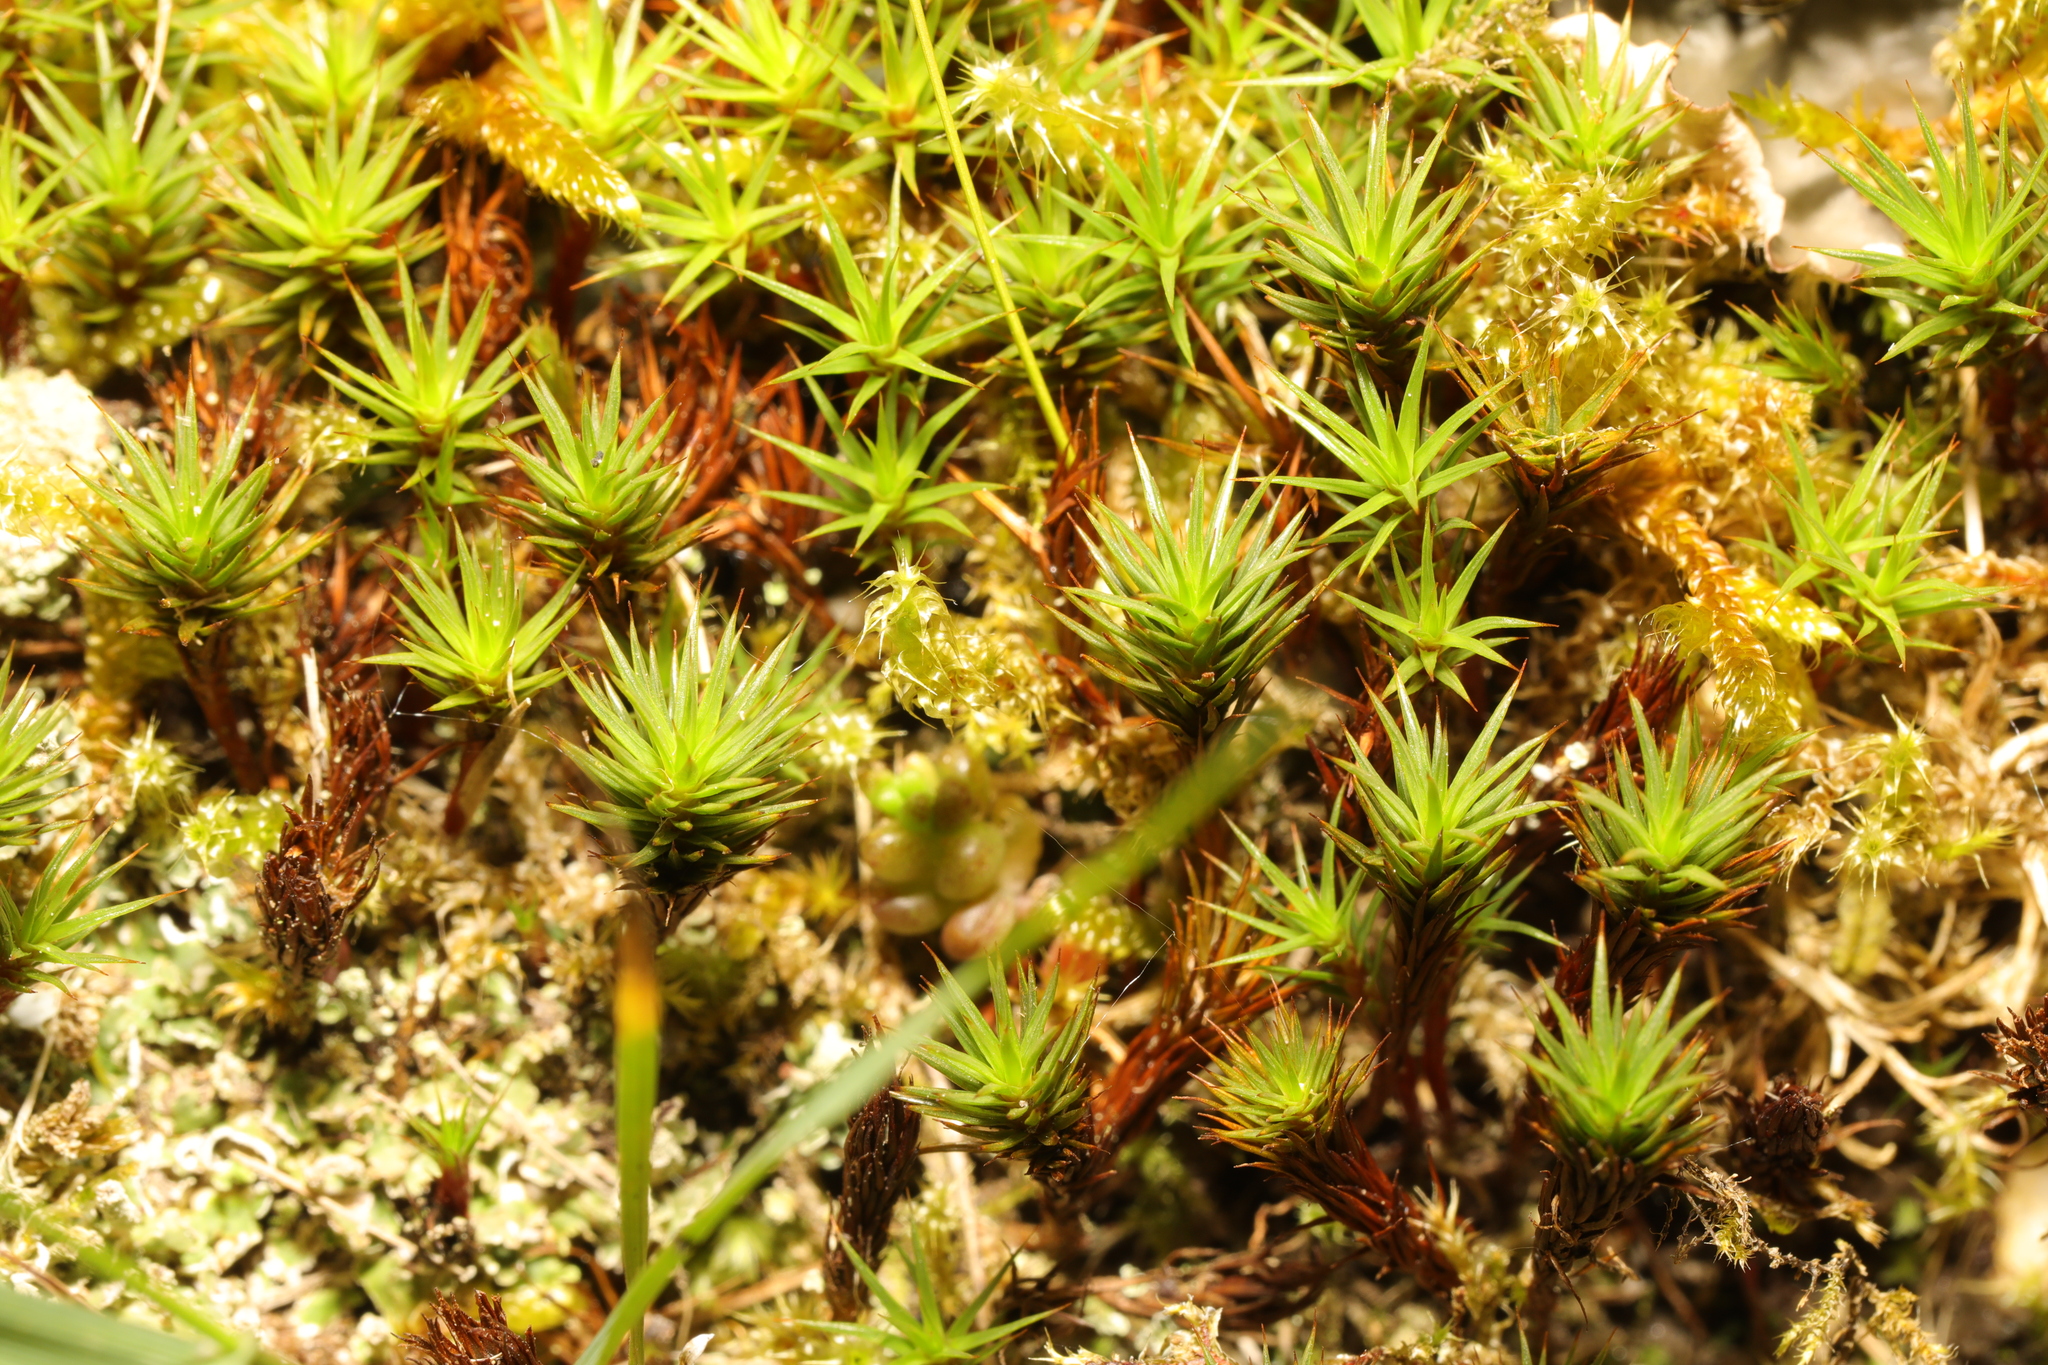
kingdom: Plantae
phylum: Bryophyta
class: Polytrichopsida
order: Polytrichales
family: Polytrichaceae
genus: Polytrichum
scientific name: Polytrichum juniperinum
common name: Juniper haircap moss
